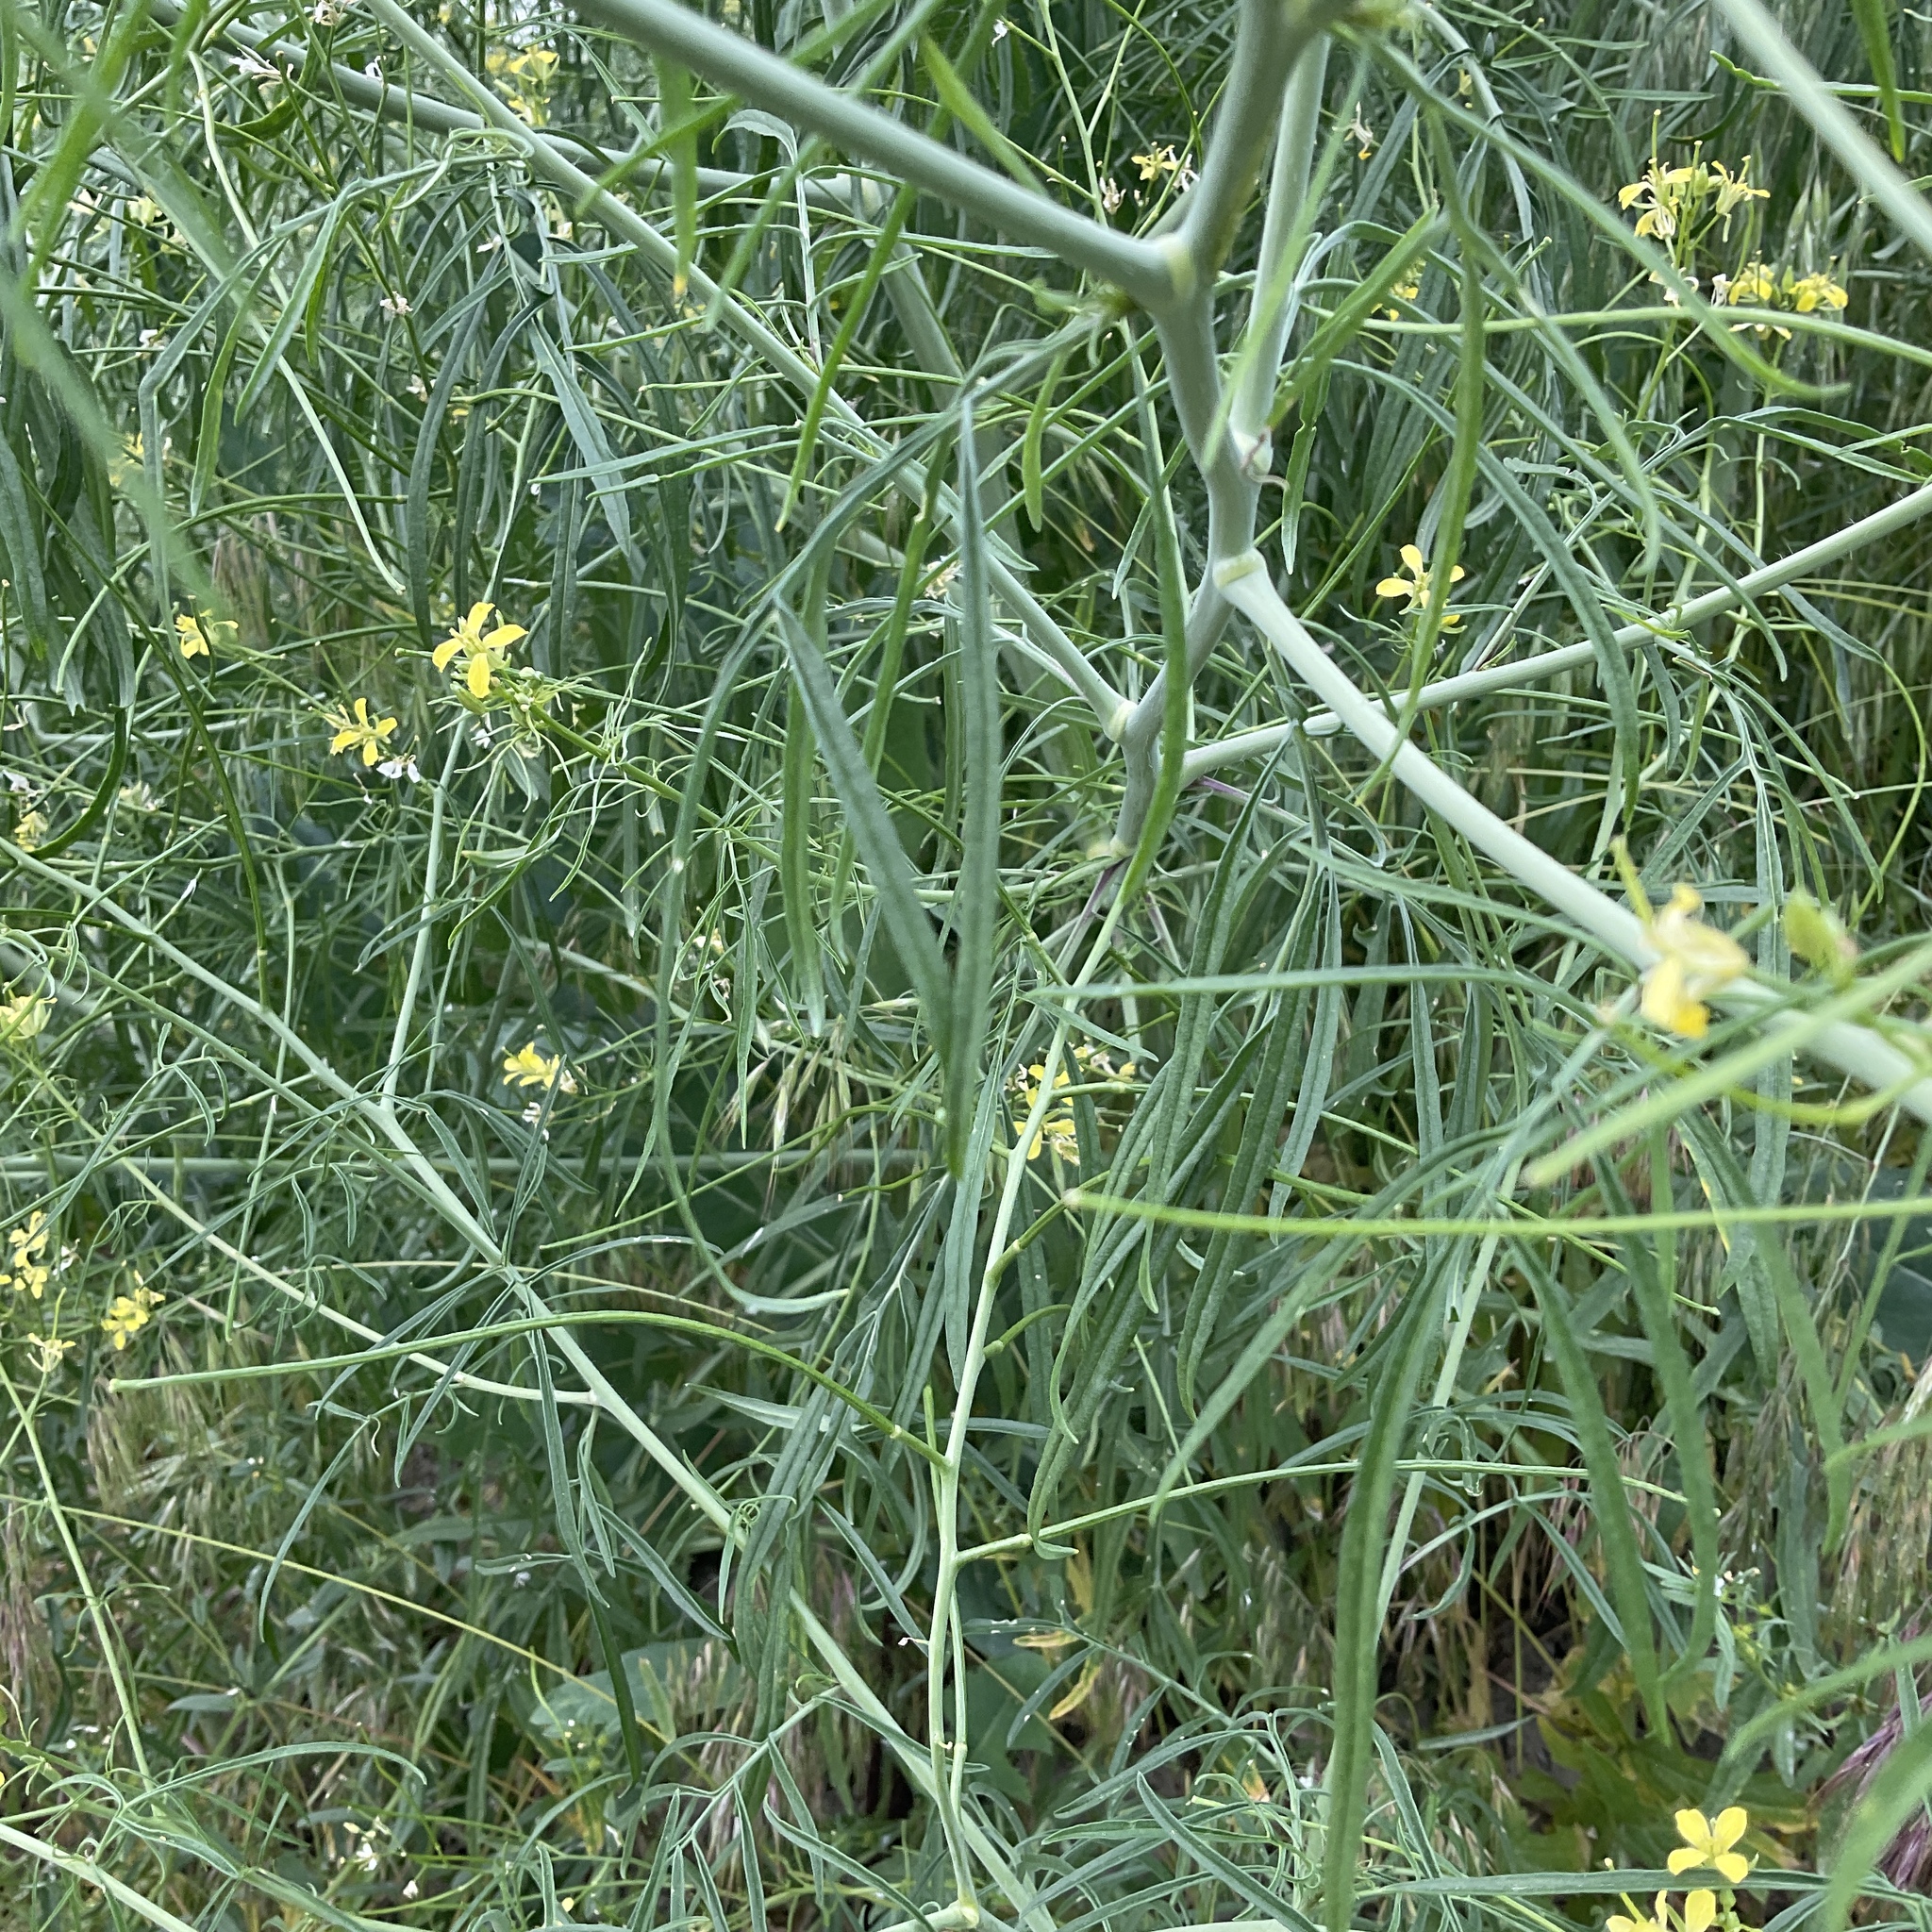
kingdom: Plantae
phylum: Tracheophyta
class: Magnoliopsida
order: Brassicales
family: Brassicaceae
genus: Sisymbrium
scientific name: Sisymbrium altissimum
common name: Tall rocket
